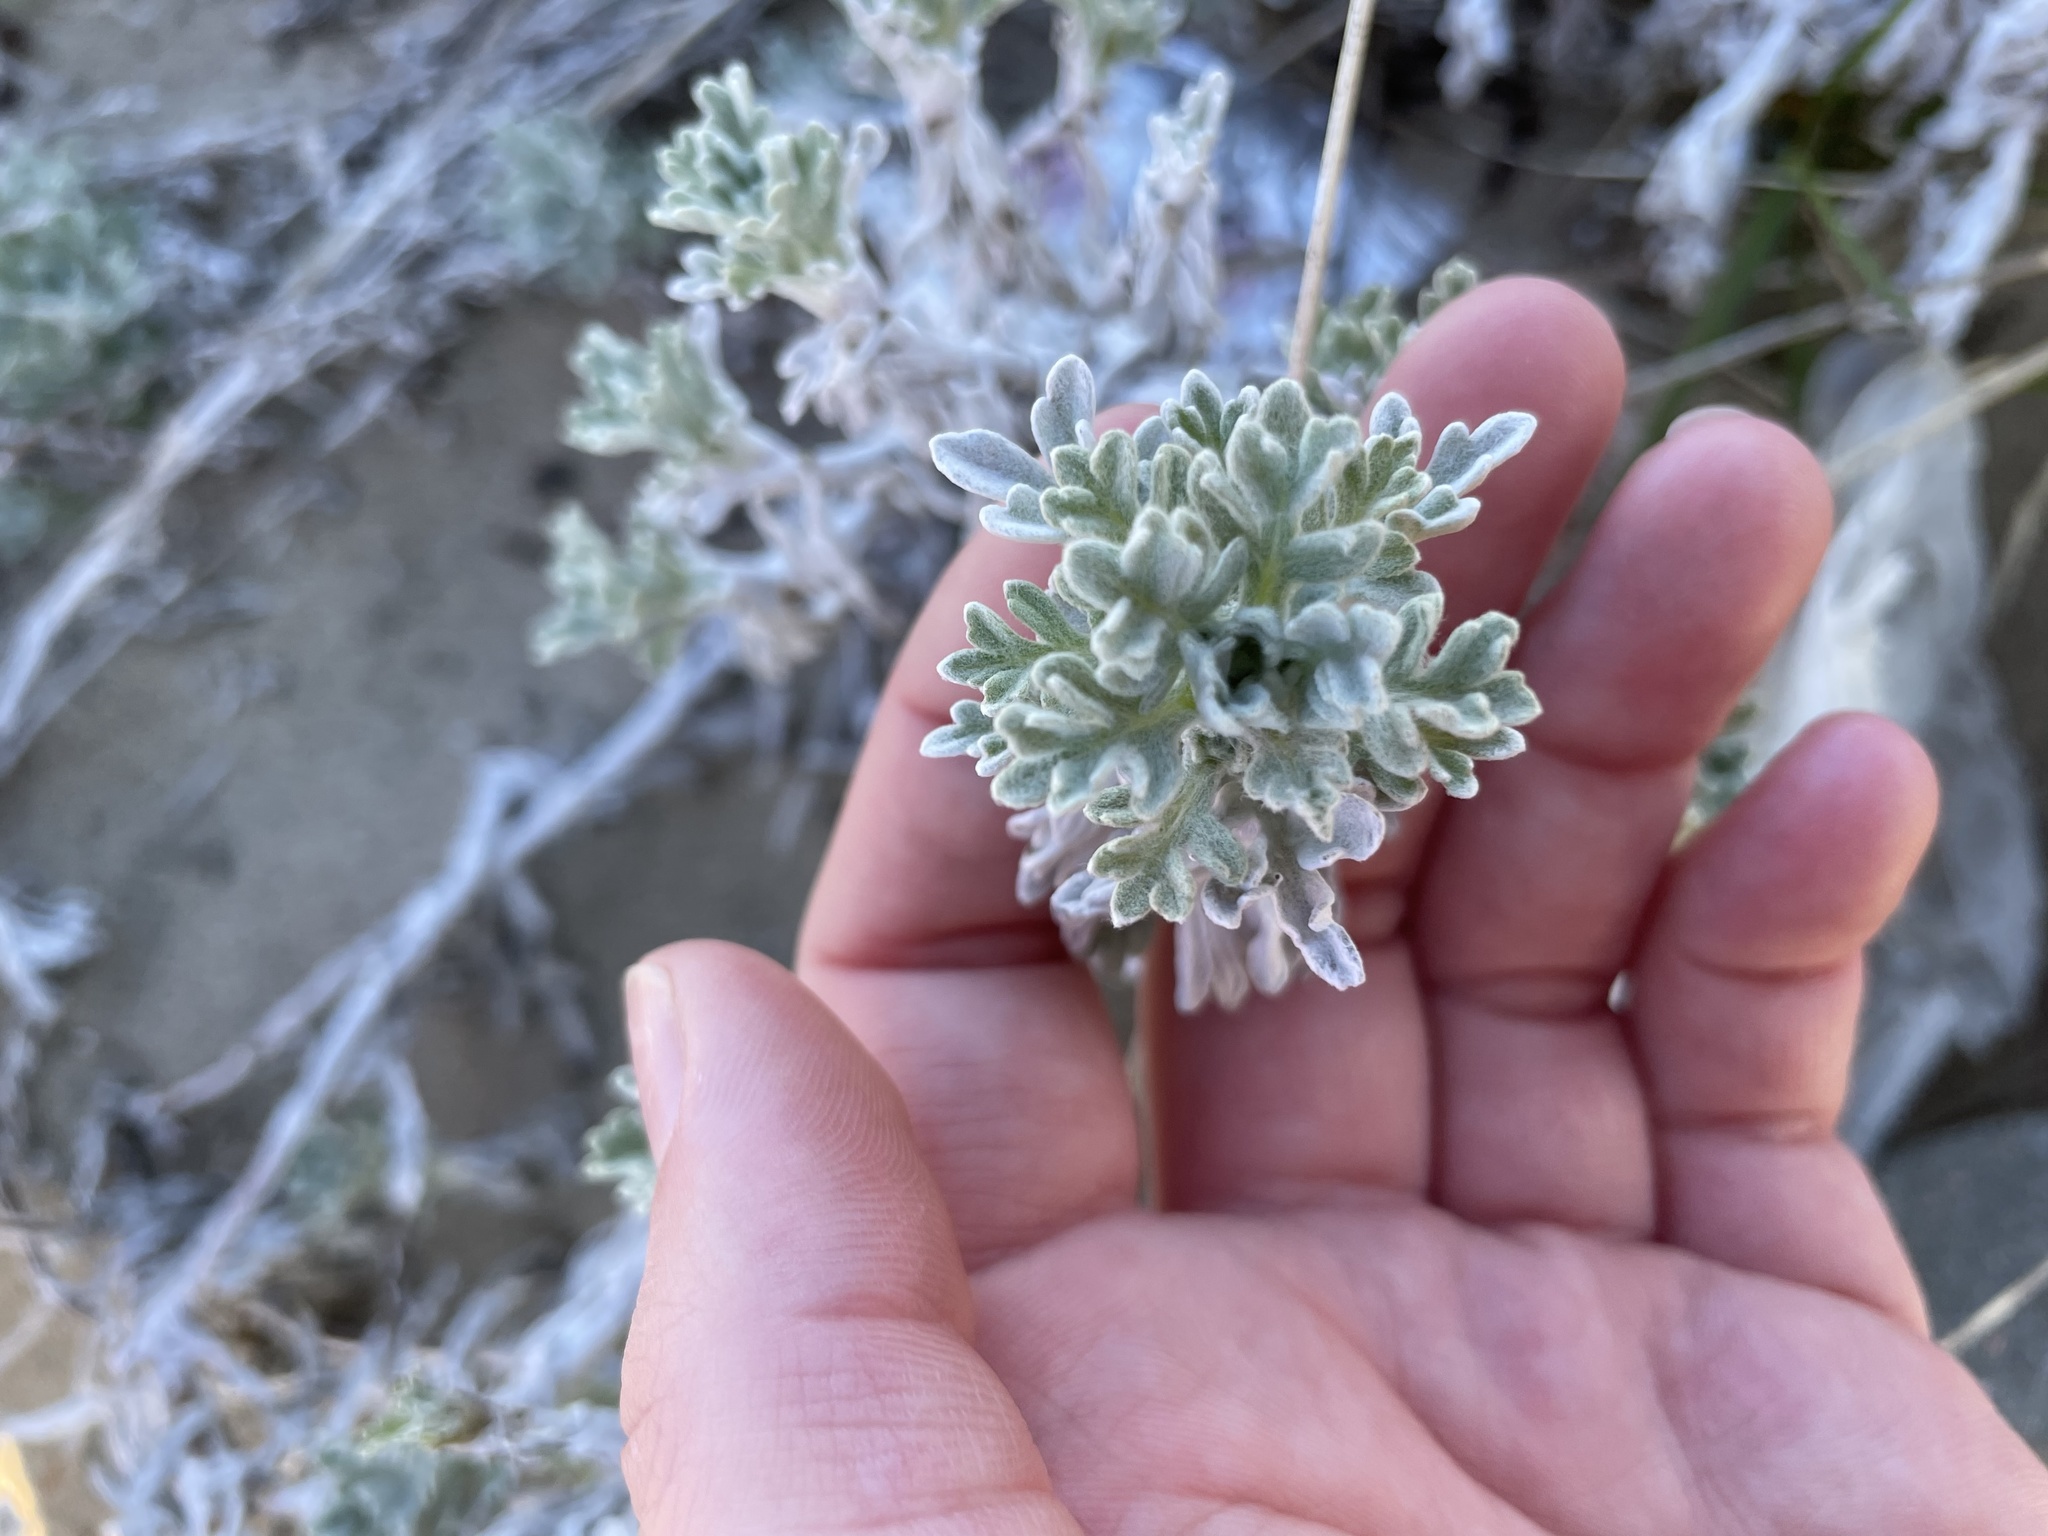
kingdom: Plantae
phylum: Tracheophyta
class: Magnoliopsida
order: Asterales
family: Asteraceae
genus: Artemisia
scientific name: Artemisia stelleriana
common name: Beach wormwood
